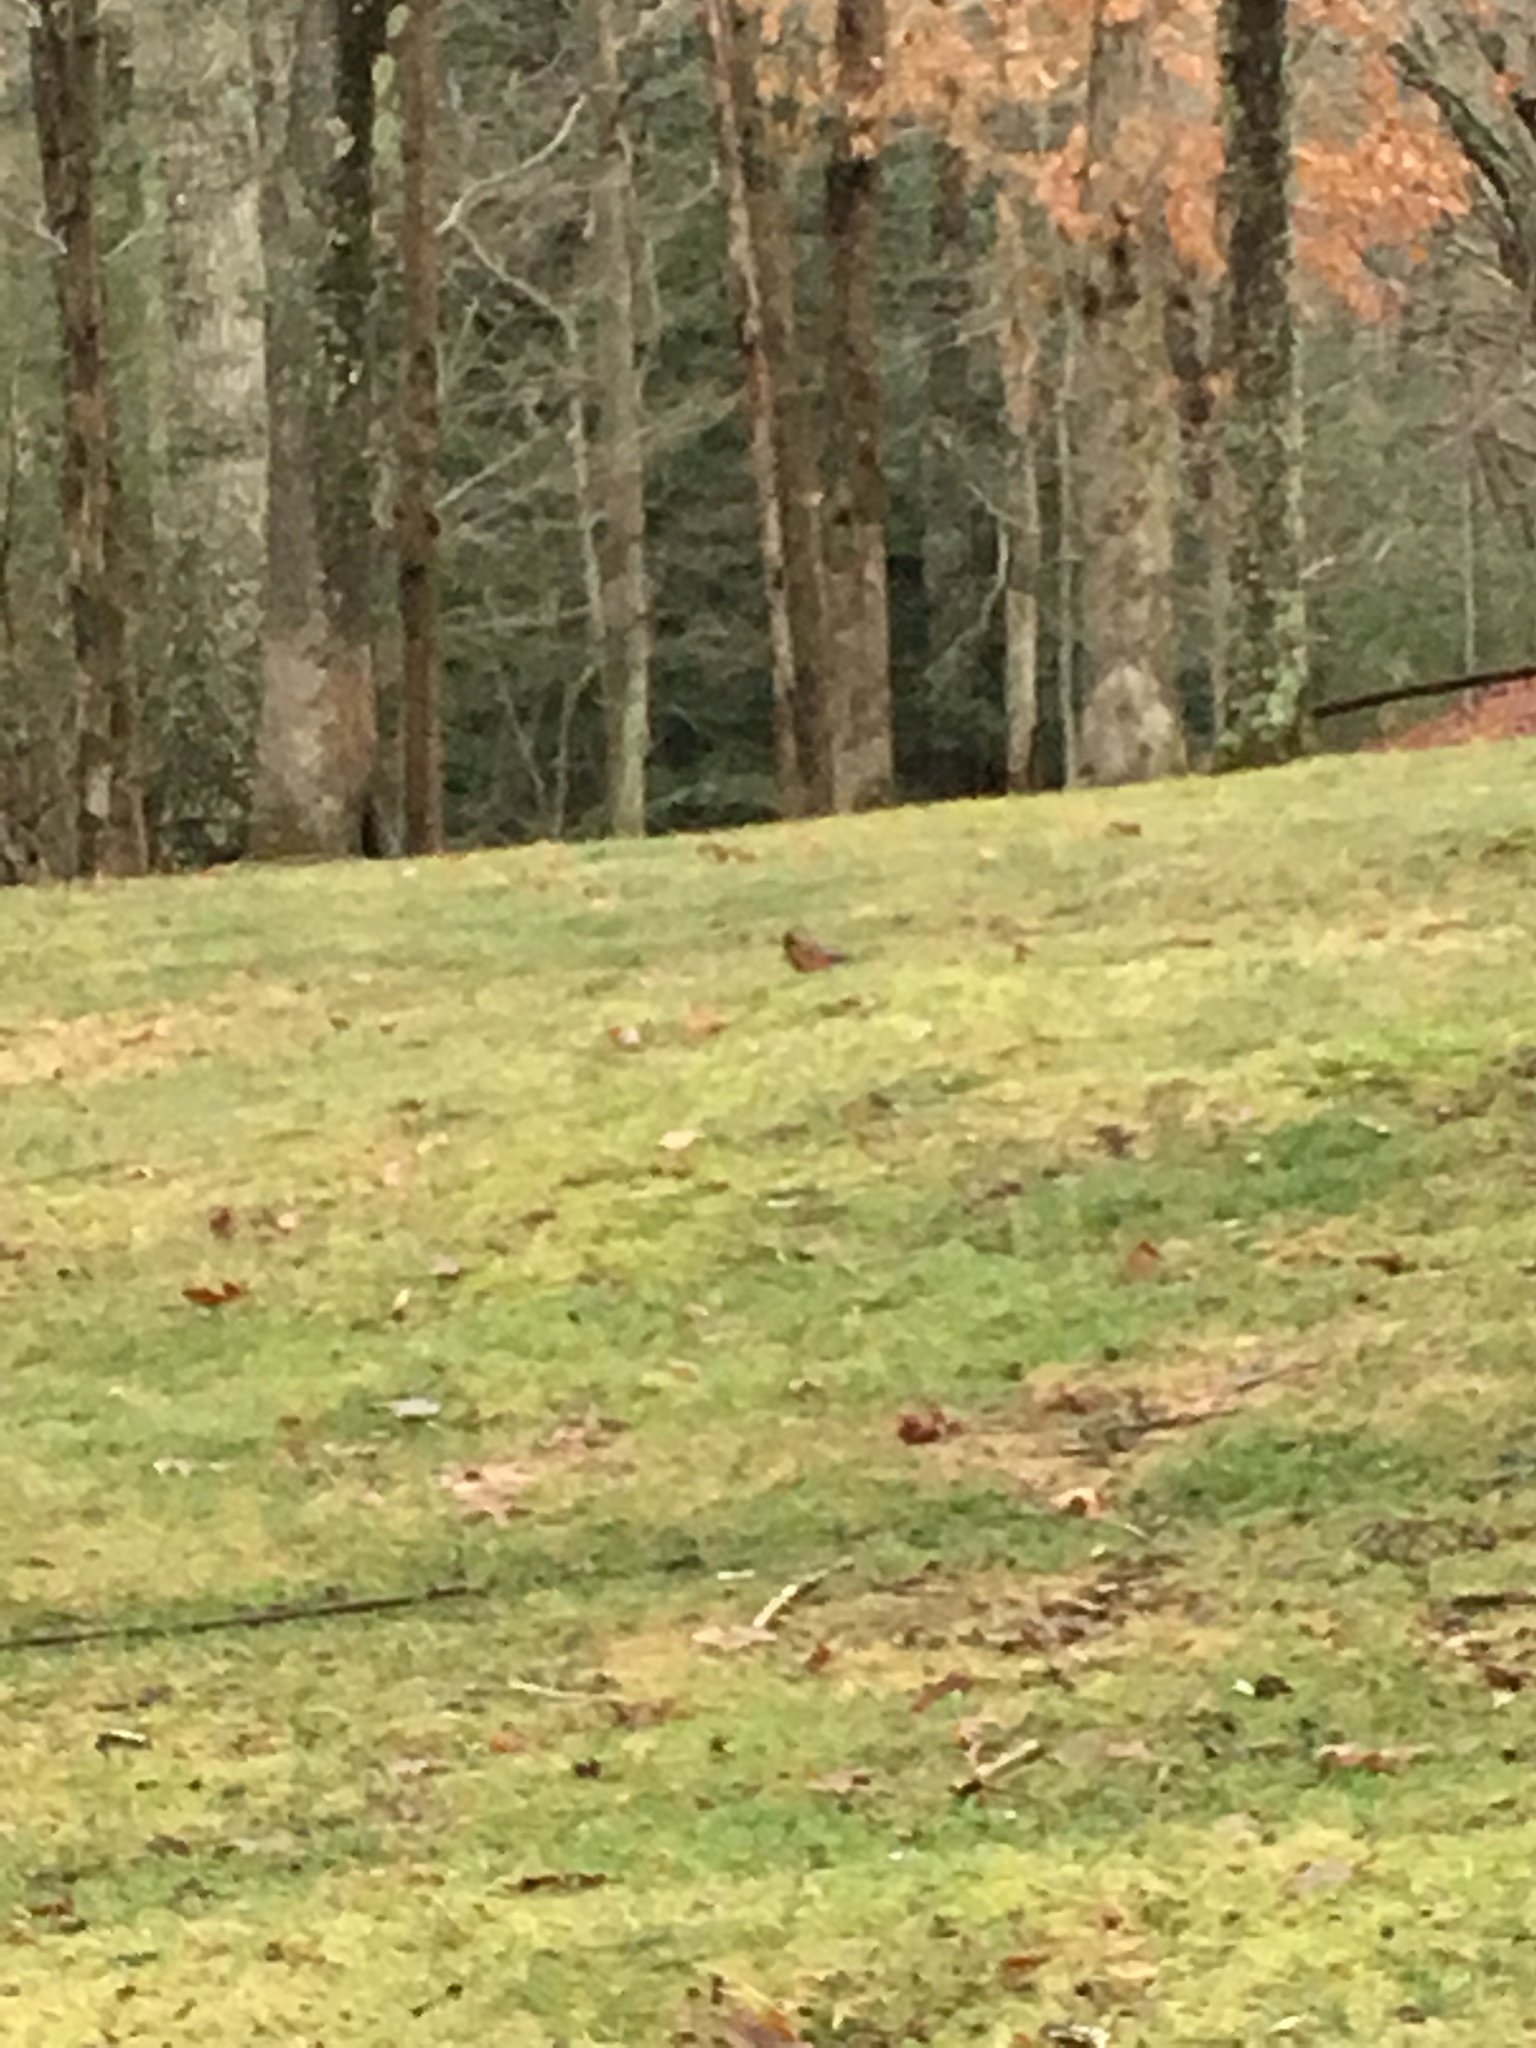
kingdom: Animalia
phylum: Chordata
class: Aves
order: Passeriformes
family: Turdidae
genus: Turdus
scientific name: Turdus migratorius
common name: American robin
